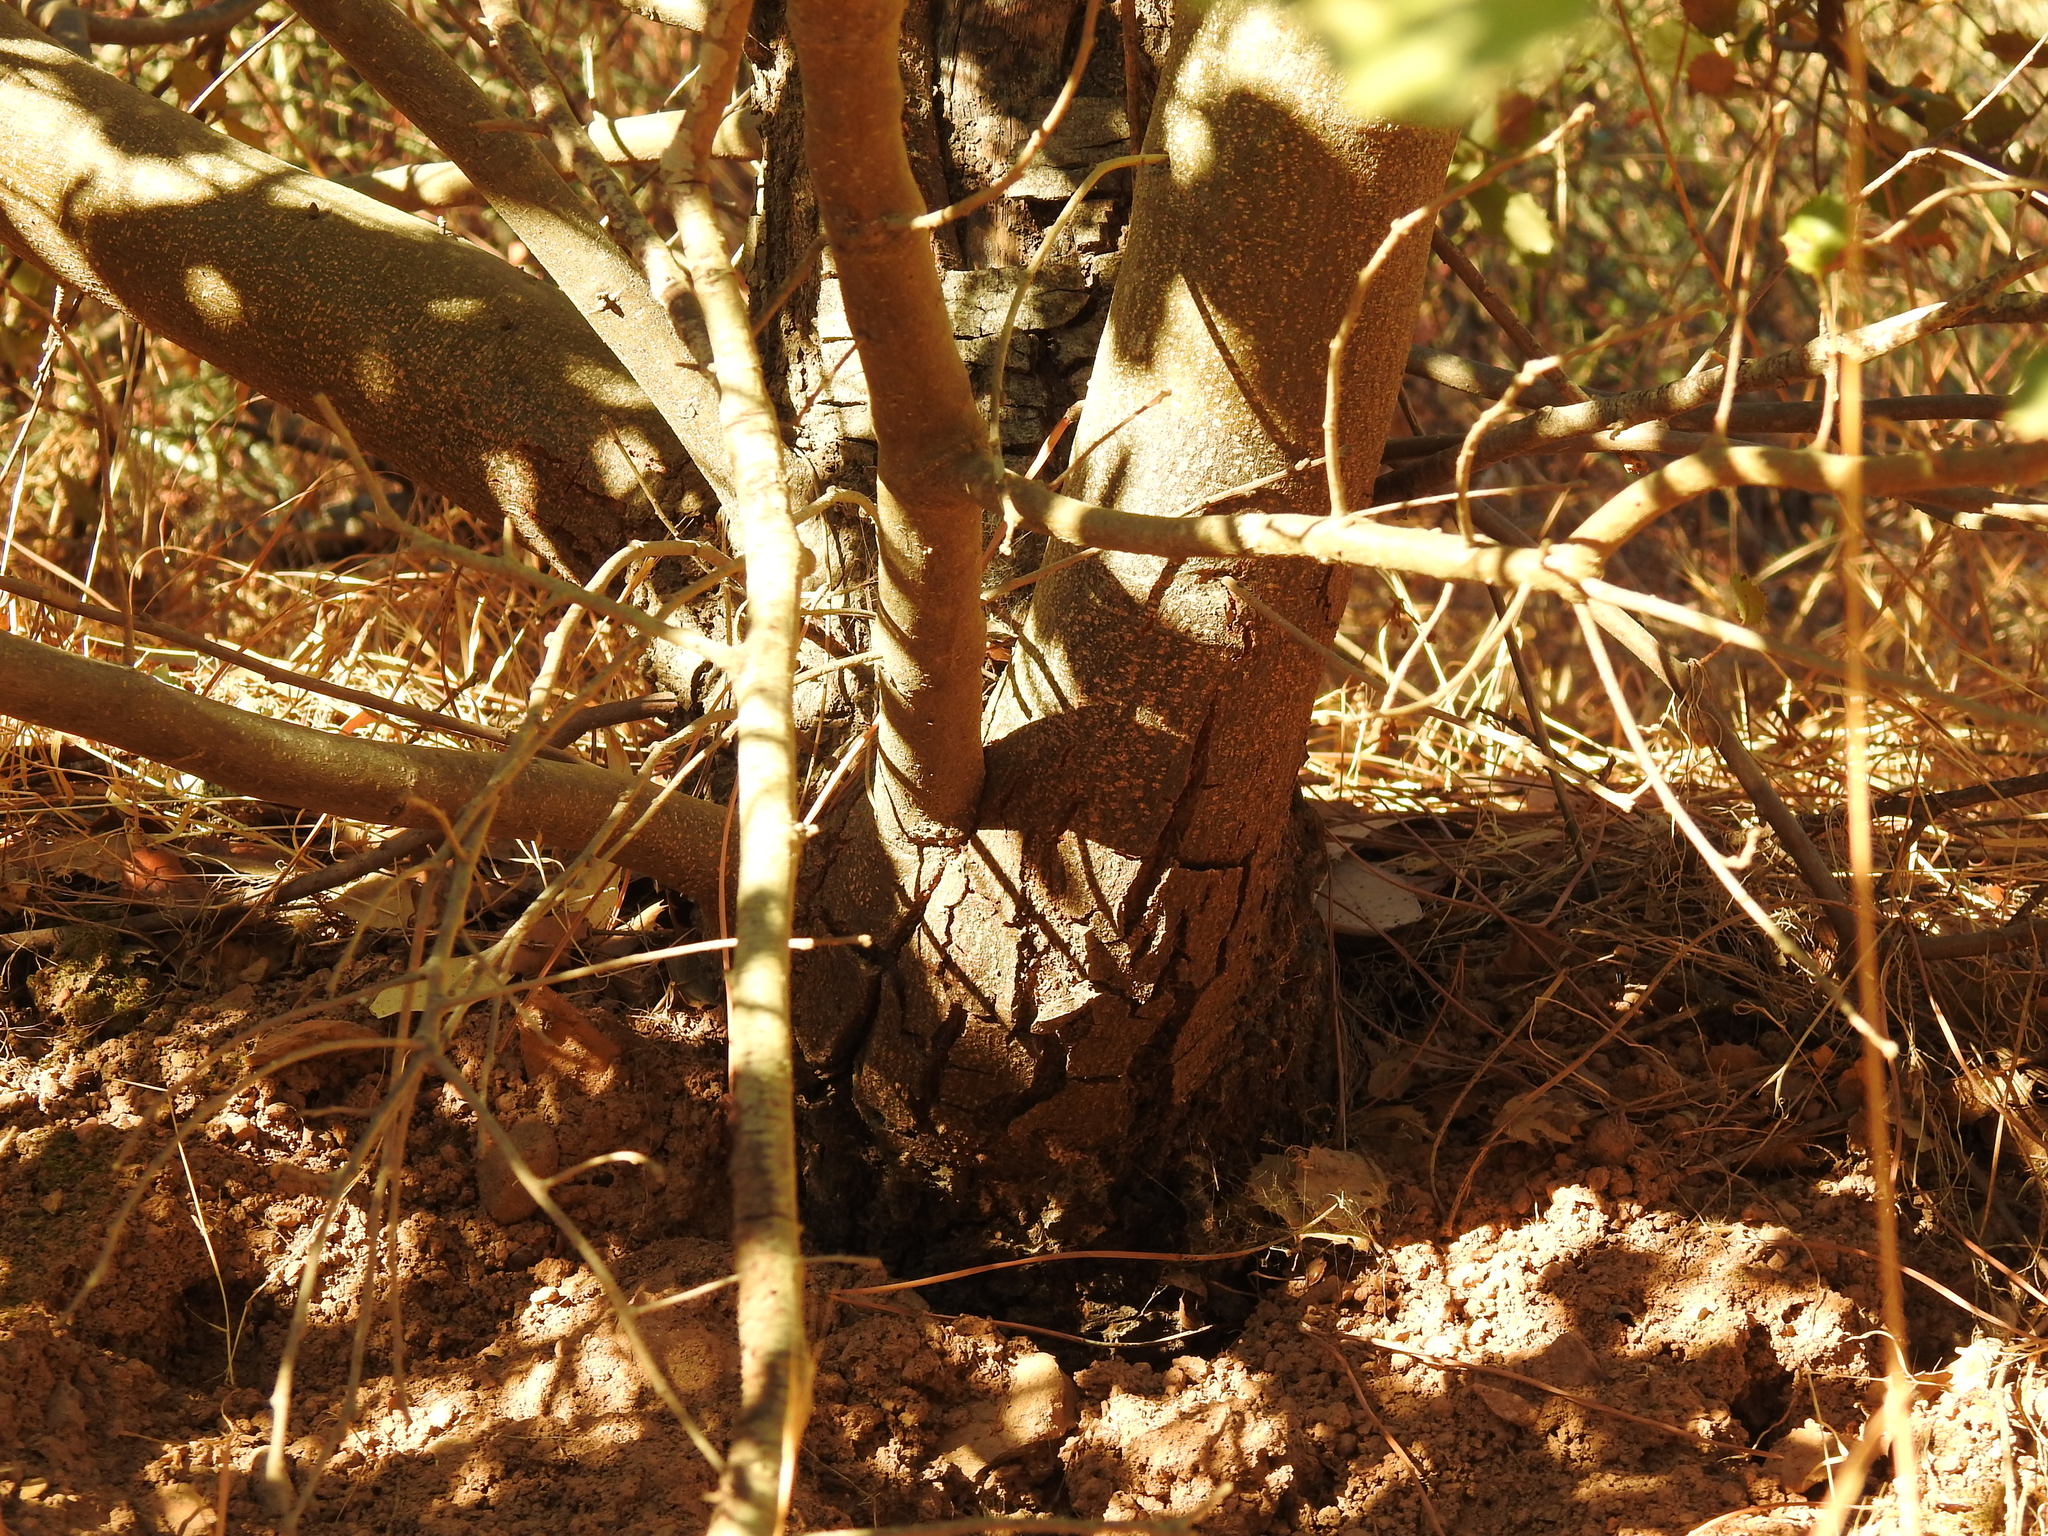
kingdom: Plantae
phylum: Tracheophyta
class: Magnoliopsida
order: Fagales
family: Fagaceae
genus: Quercus
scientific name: Quercus avellaniformis
